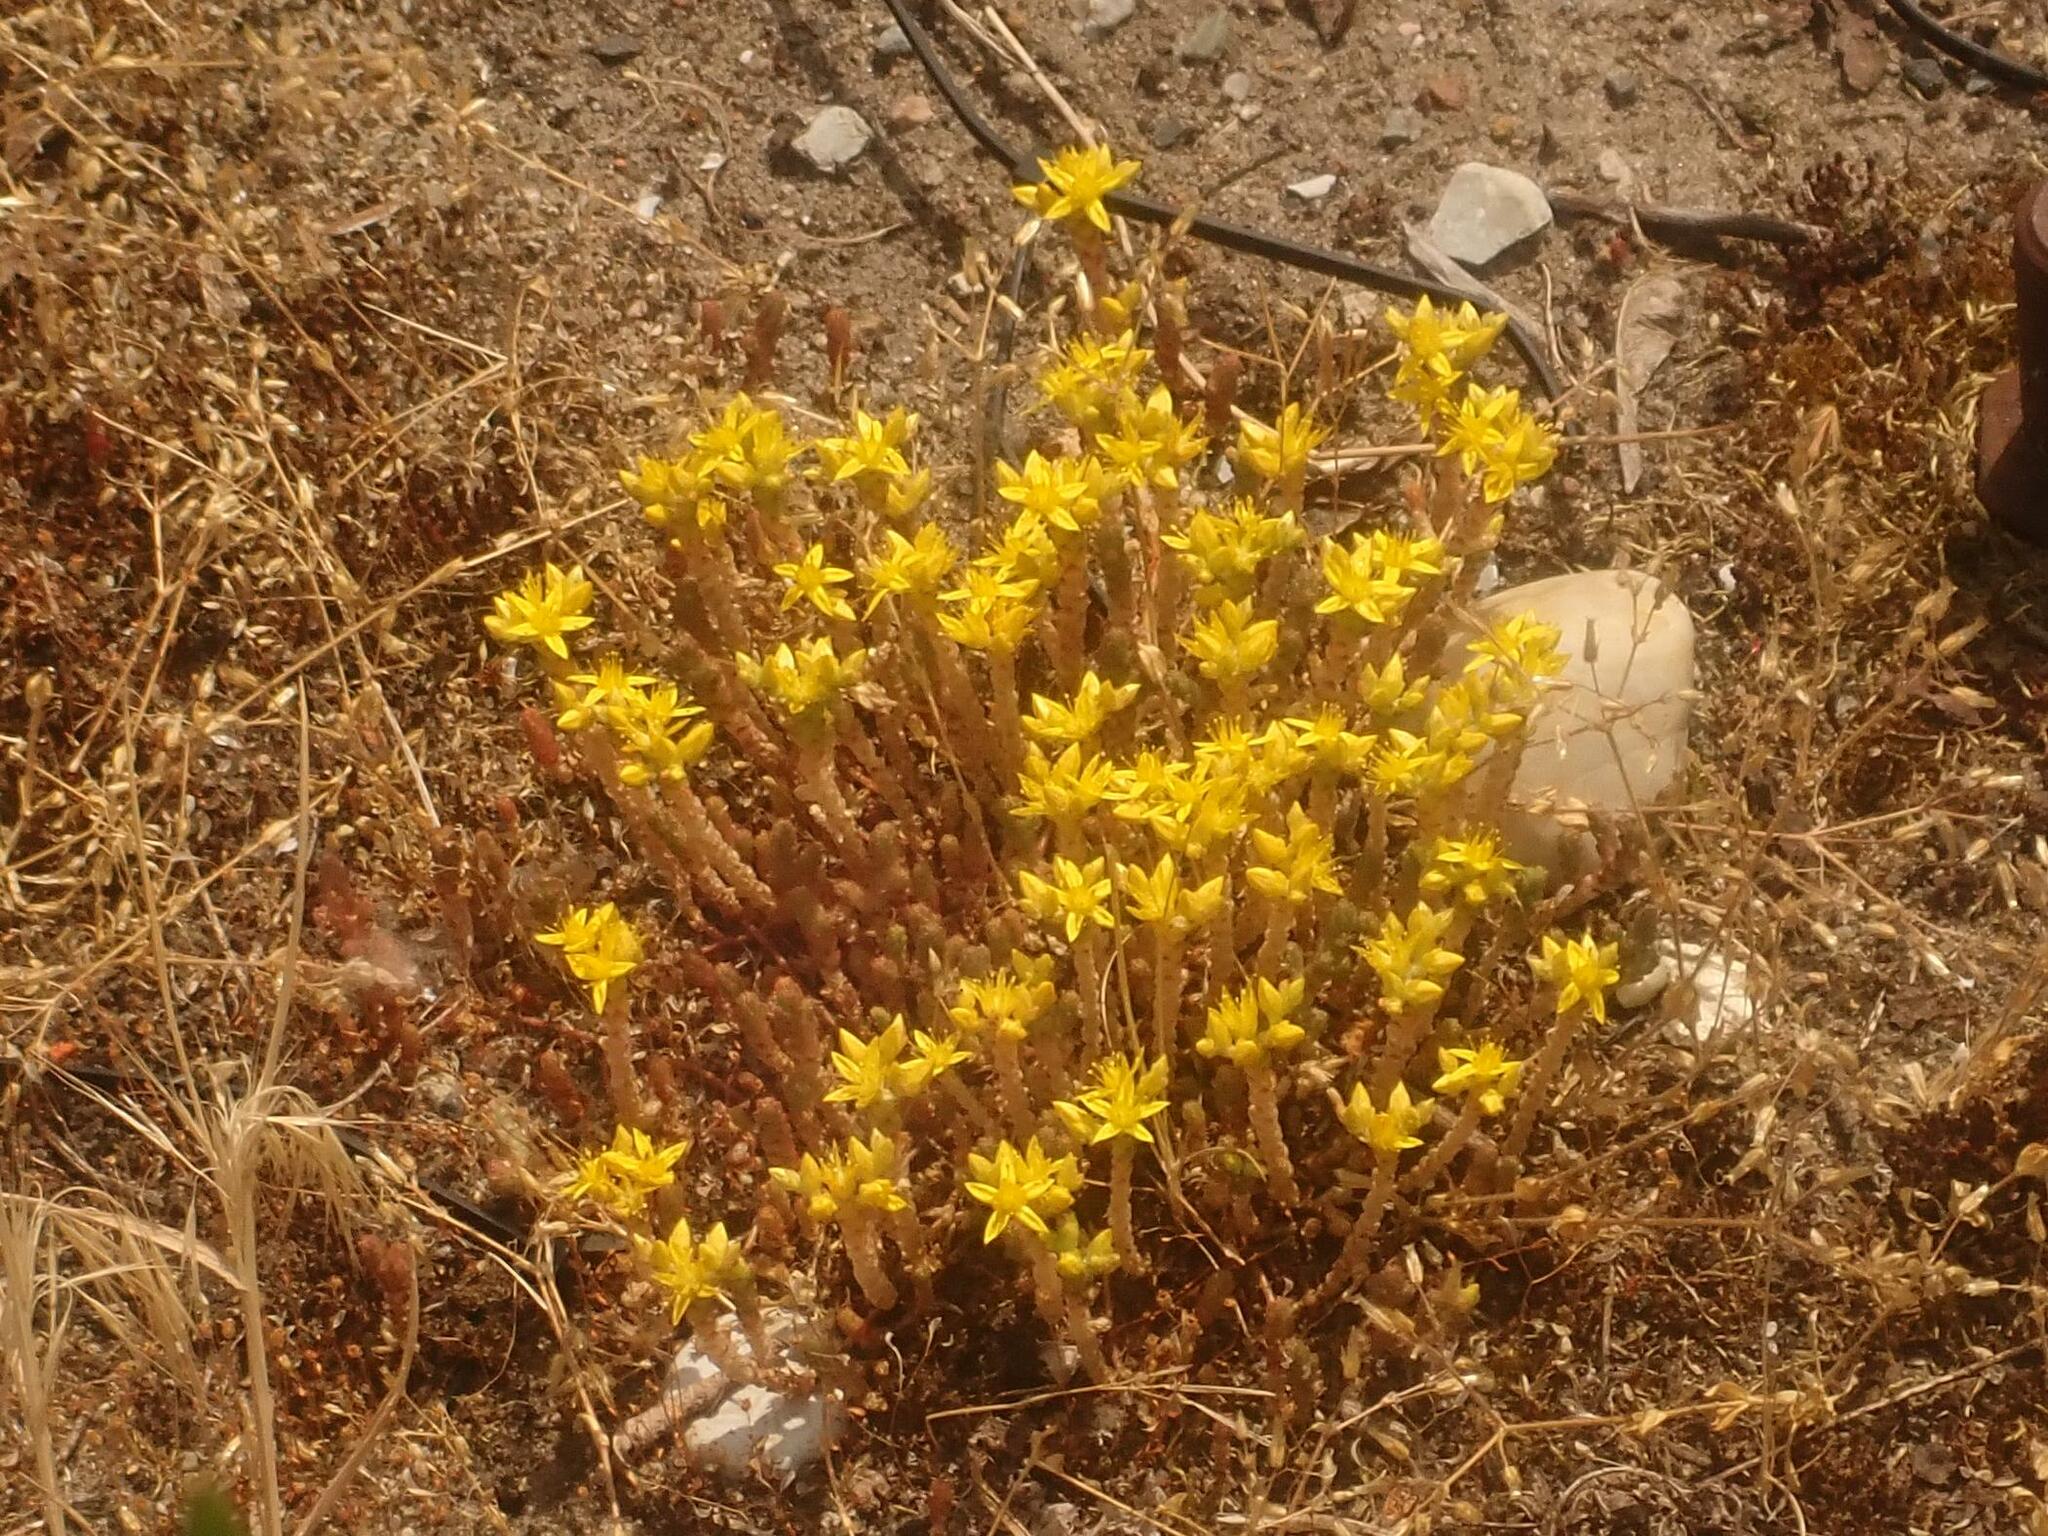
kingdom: Plantae
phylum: Tracheophyta
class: Magnoliopsida
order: Saxifragales
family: Crassulaceae
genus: Sedum
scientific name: Sedum acre
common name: Biting stonecrop
